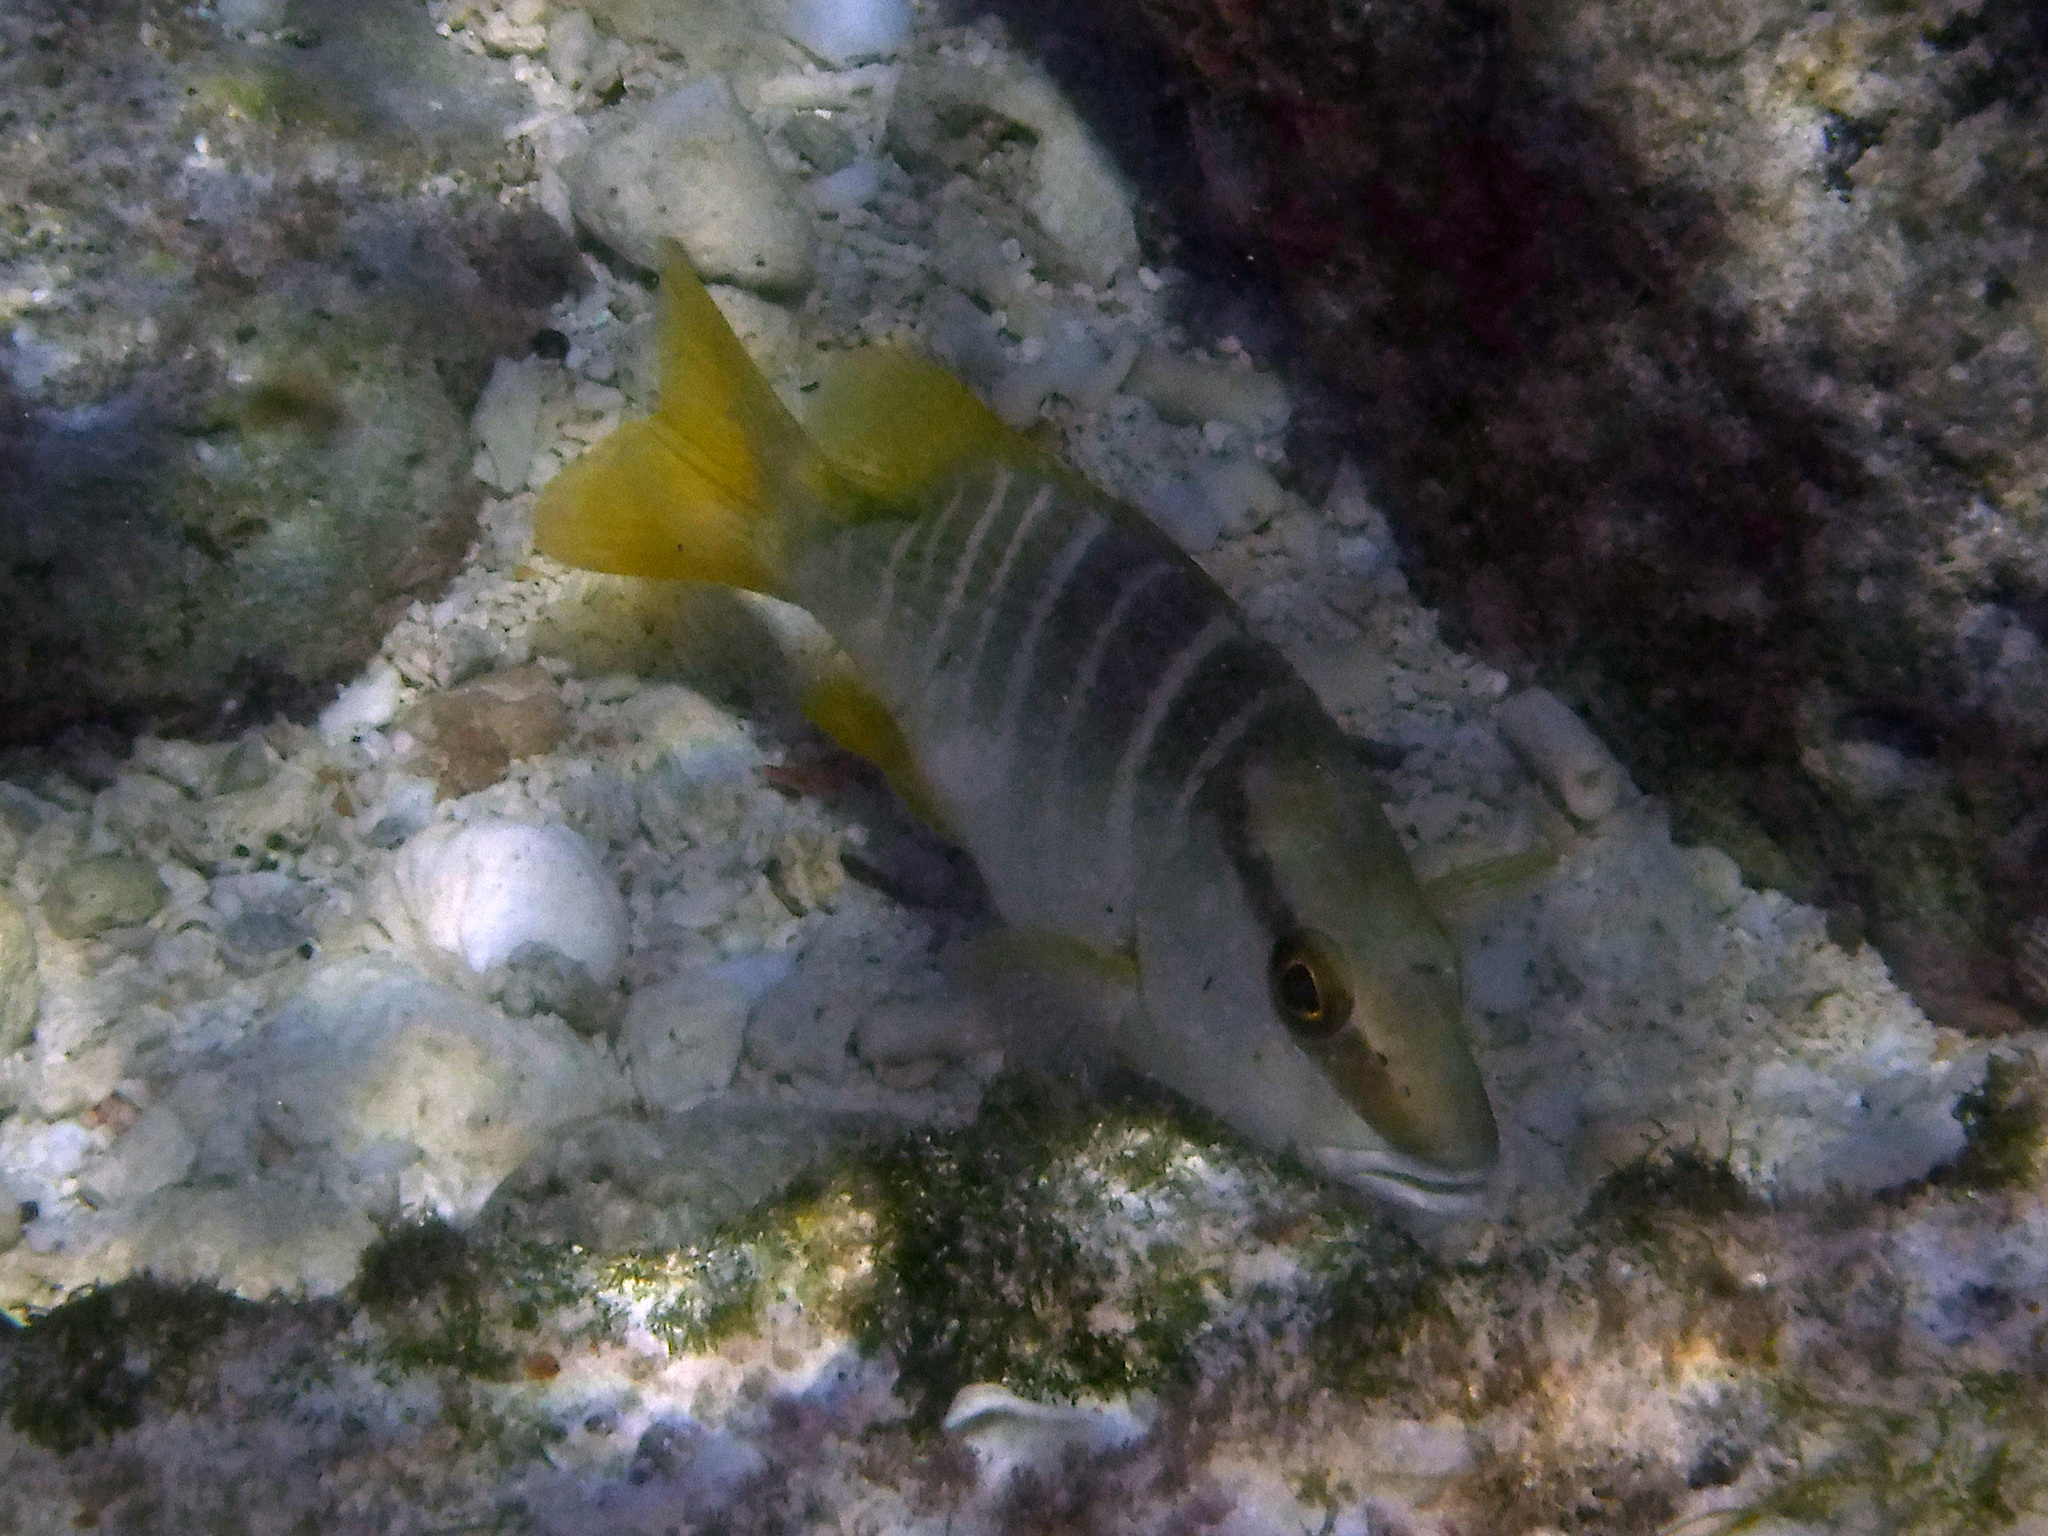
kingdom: Animalia
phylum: Chordata
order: Perciformes
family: Lutjanidae
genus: Lutjanus
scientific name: Lutjanus apodus
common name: Schoolmaster
